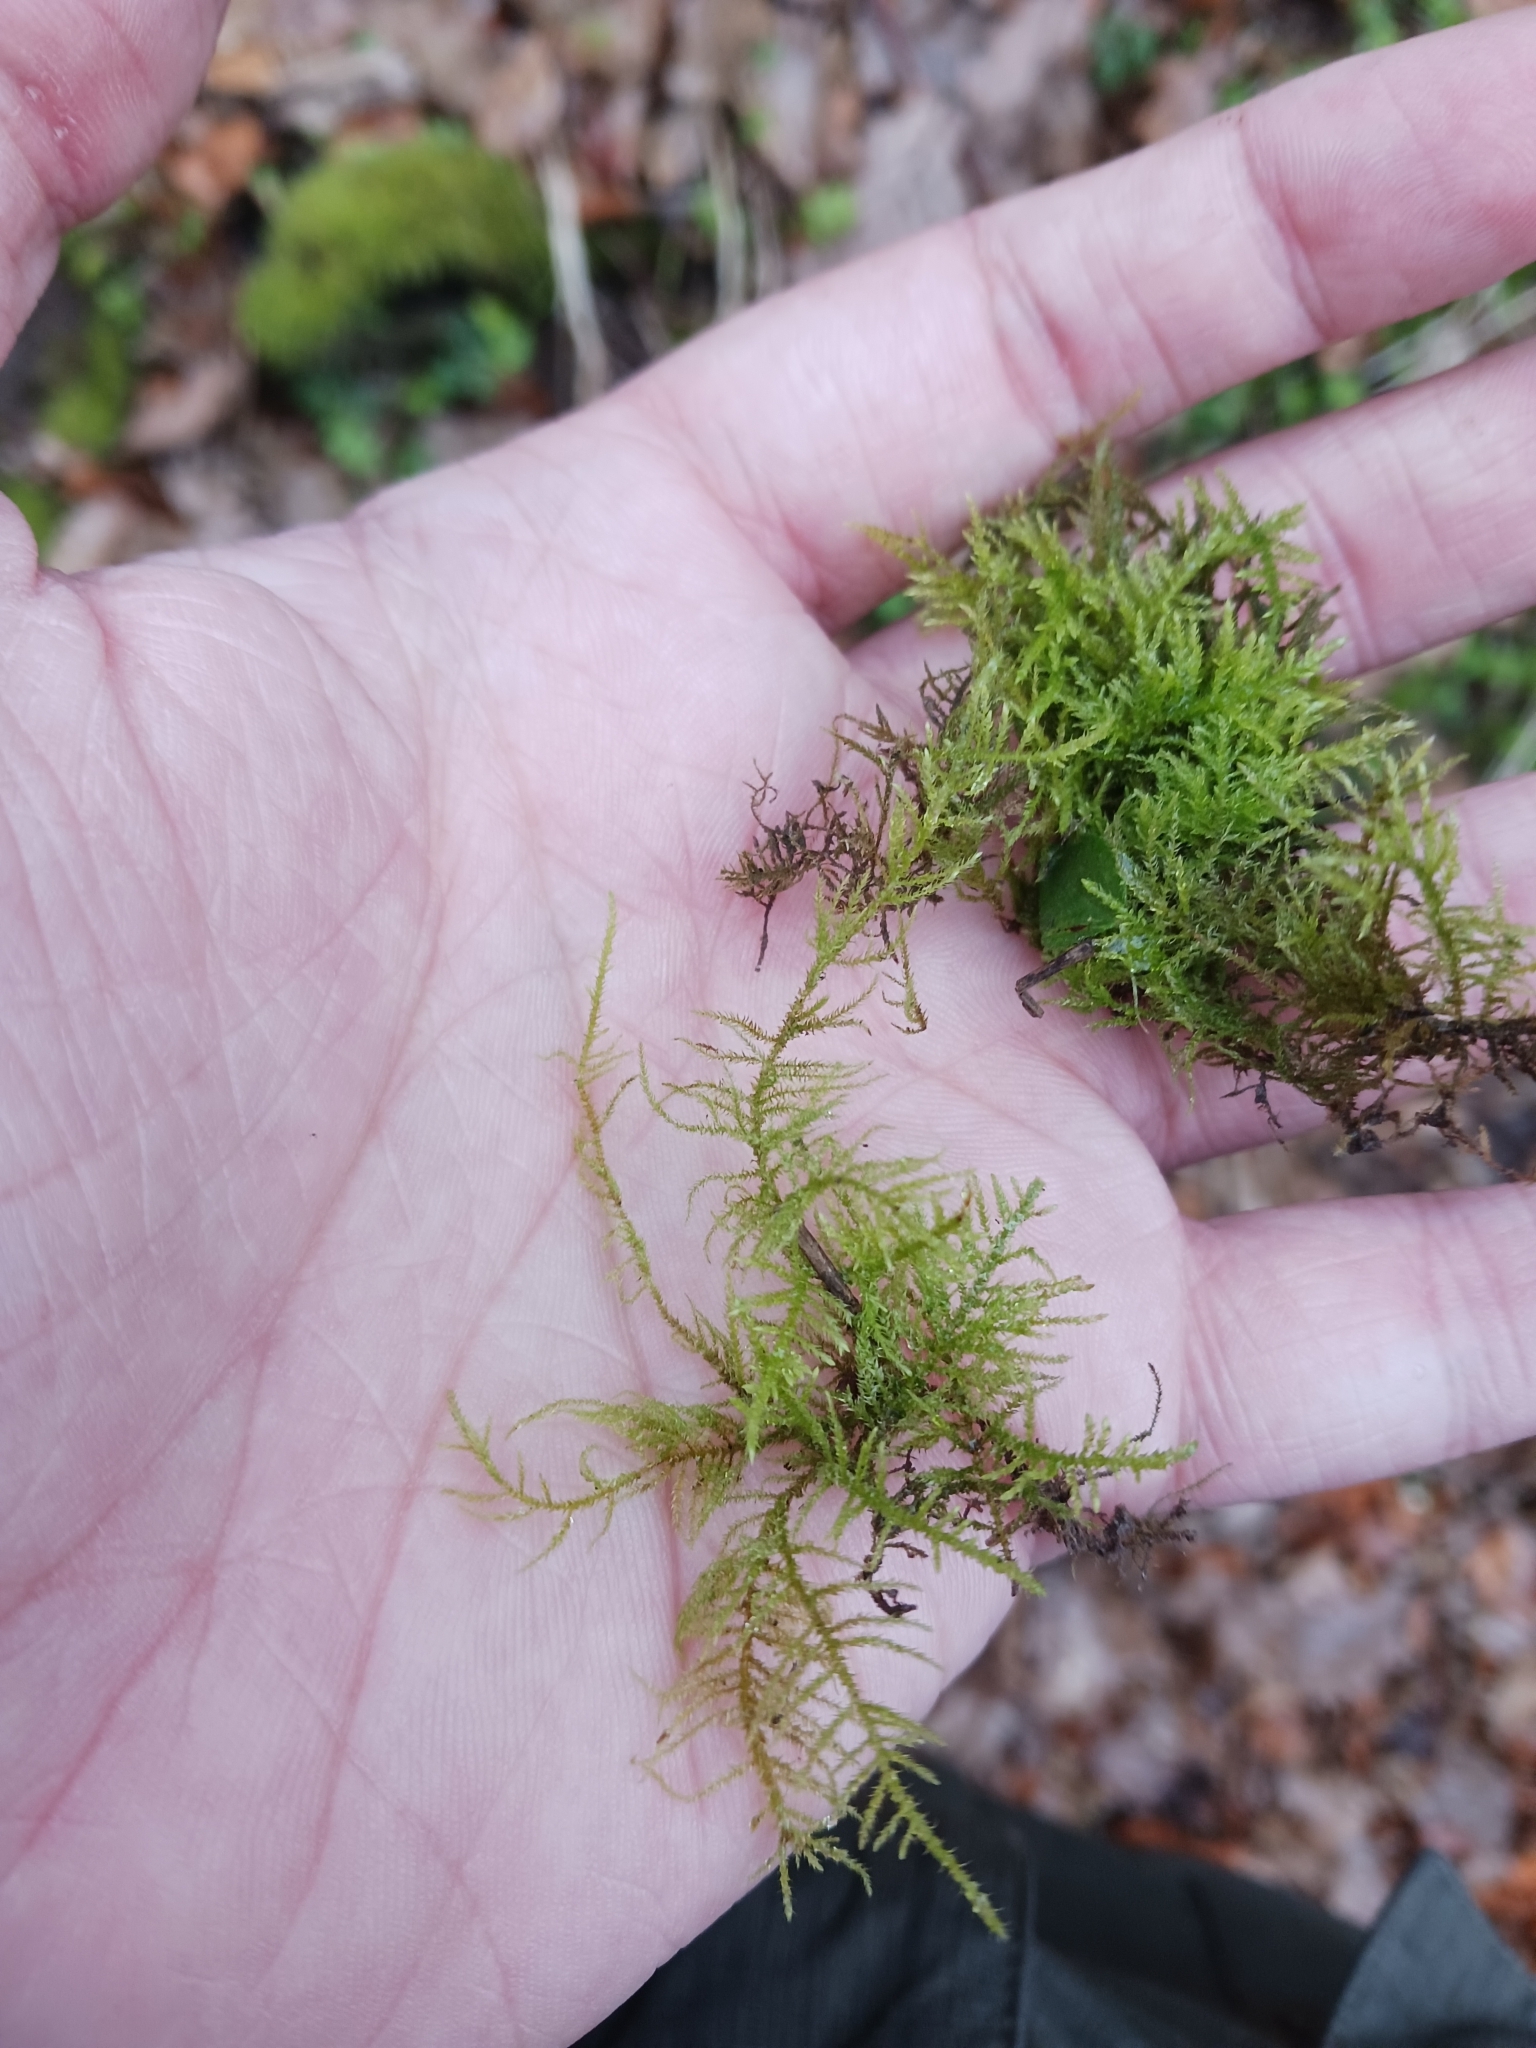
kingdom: Plantae
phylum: Bryophyta
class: Bryopsida
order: Hypnales
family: Brachytheciaceae
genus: Kindbergia
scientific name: Kindbergia praelonga
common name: Slender beaked moss
